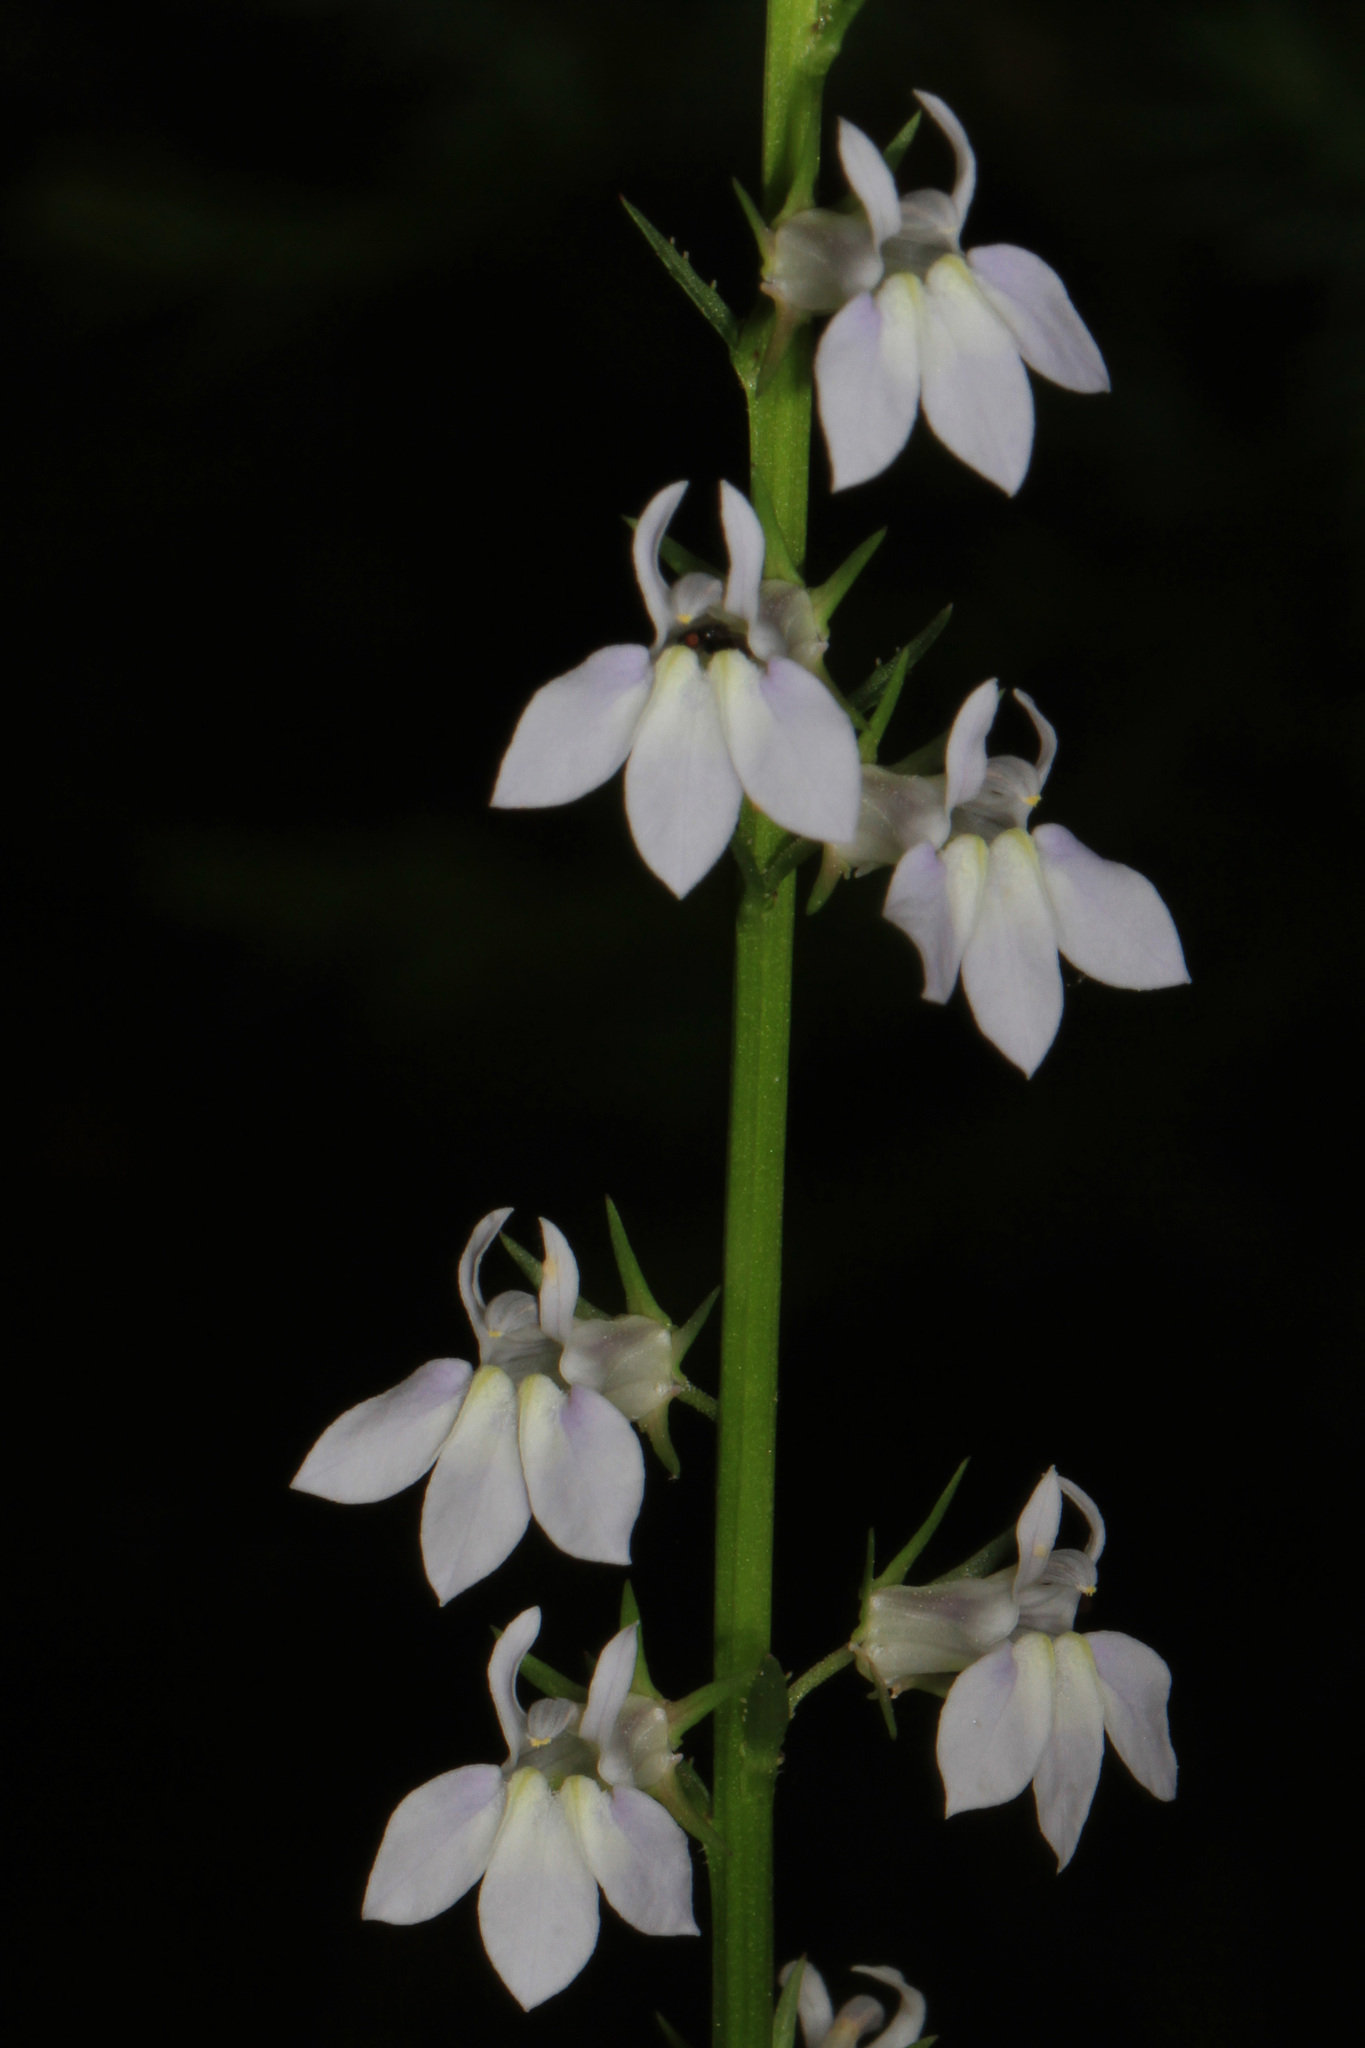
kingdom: Plantae
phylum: Tracheophyta
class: Magnoliopsida
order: Asterales
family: Campanulaceae
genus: Lobelia
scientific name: Lobelia spicata
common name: Pale-spike lobelia
